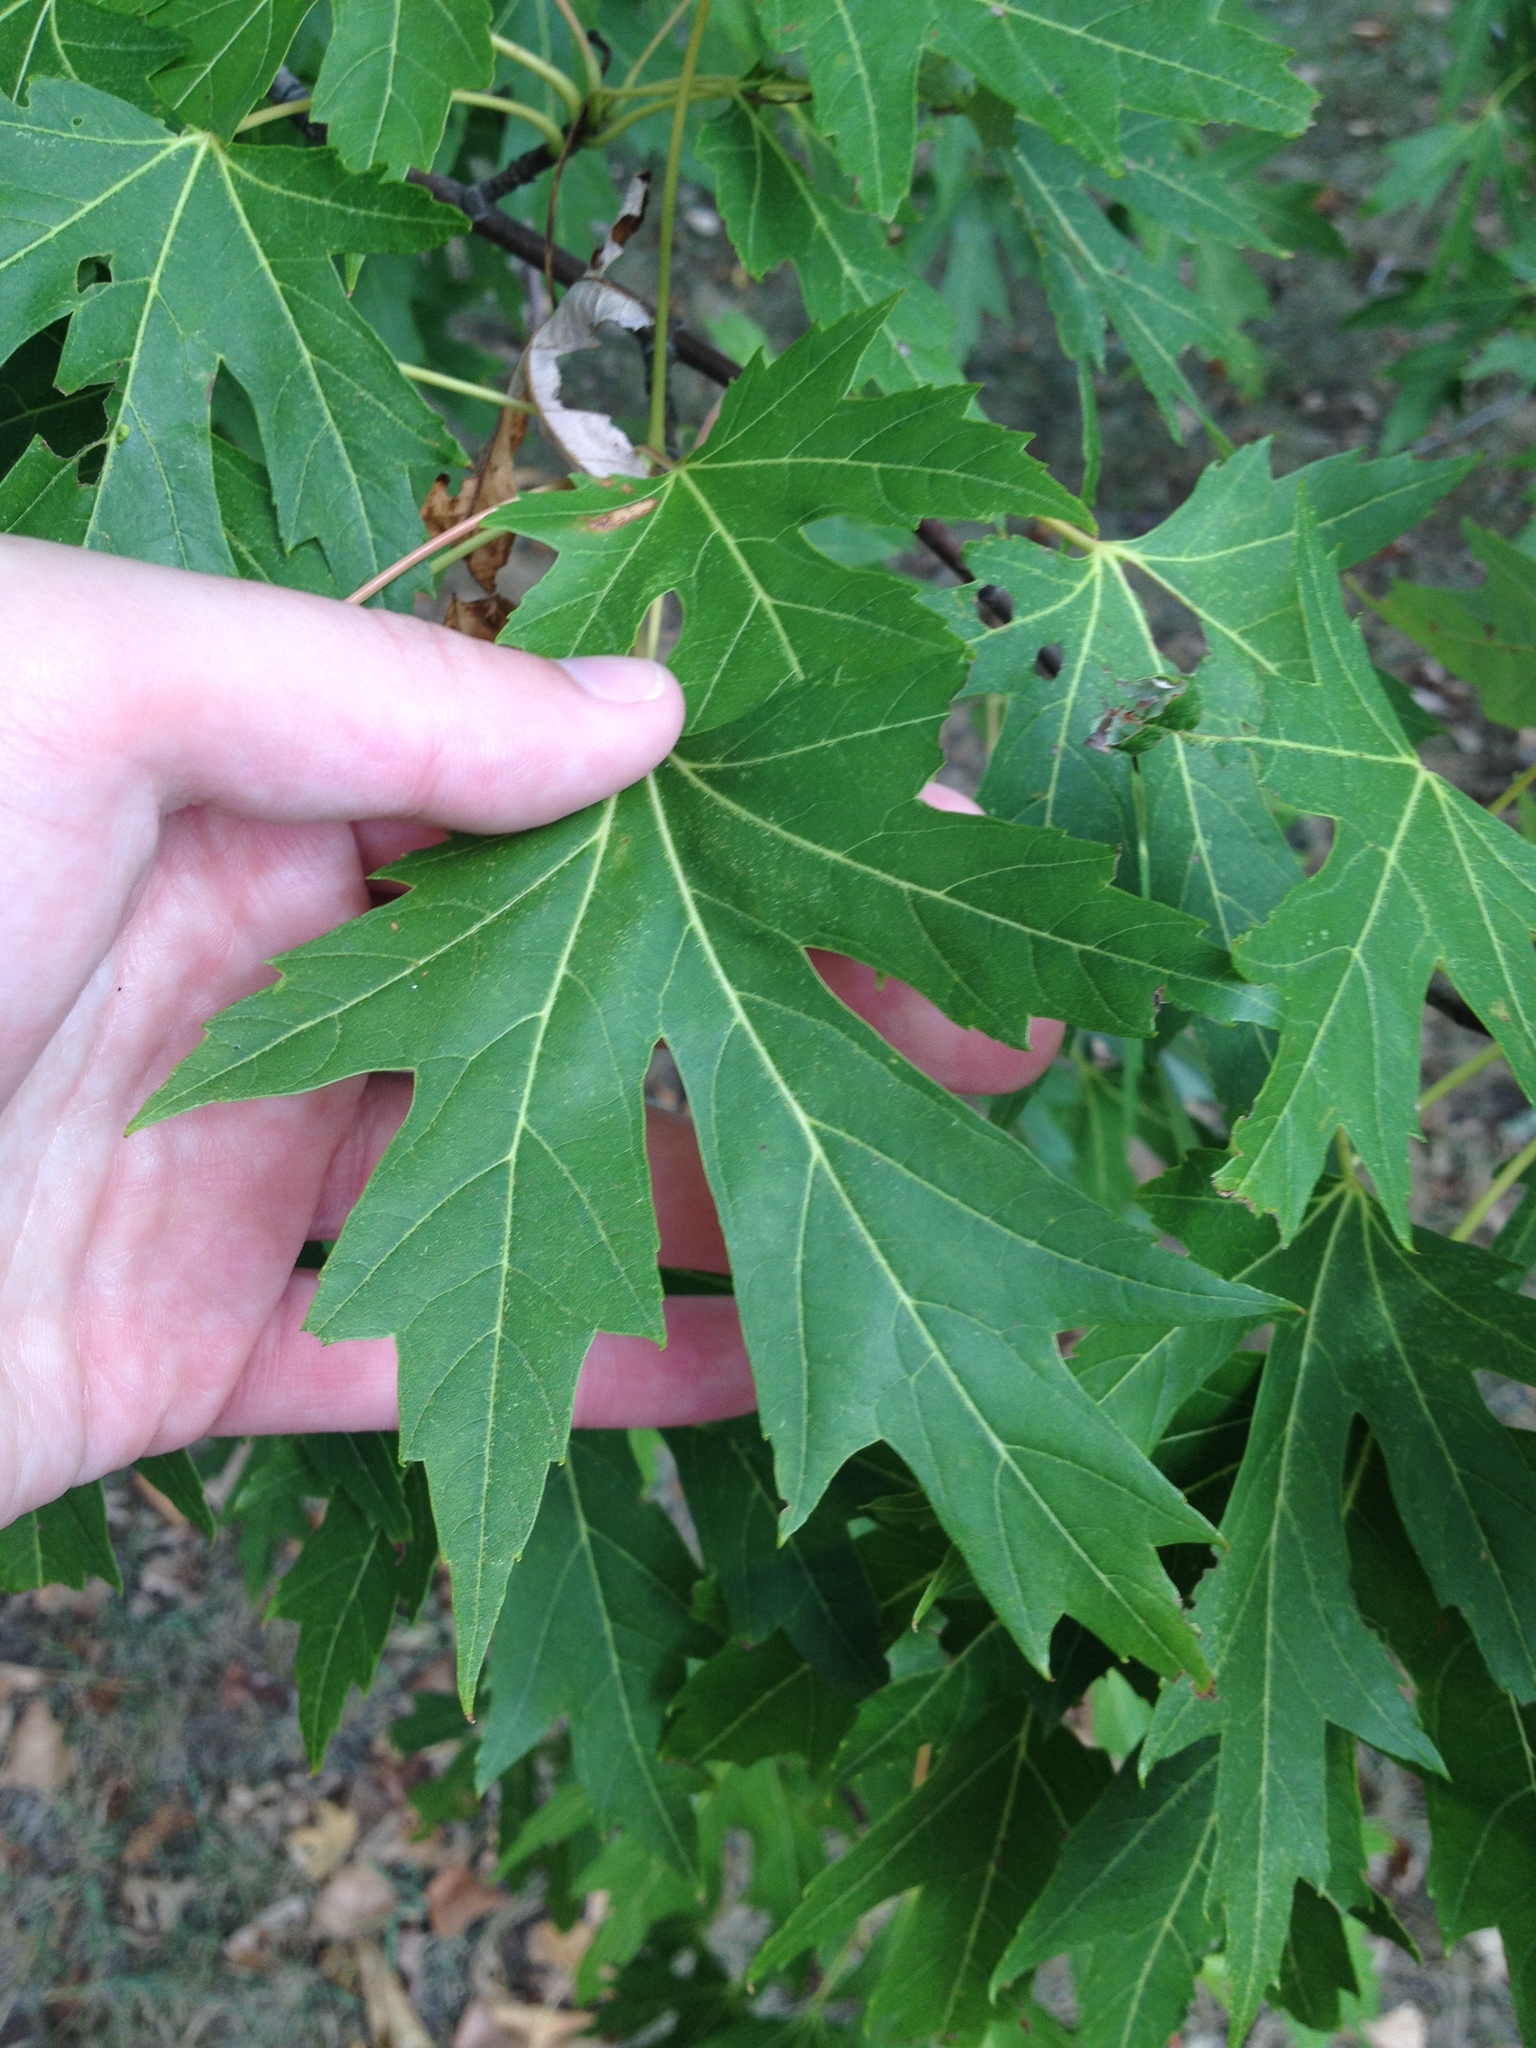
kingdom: Plantae
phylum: Tracheophyta
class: Magnoliopsida
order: Sapindales
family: Sapindaceae
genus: Acer
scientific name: Acer saccharinum
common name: Silver maple
